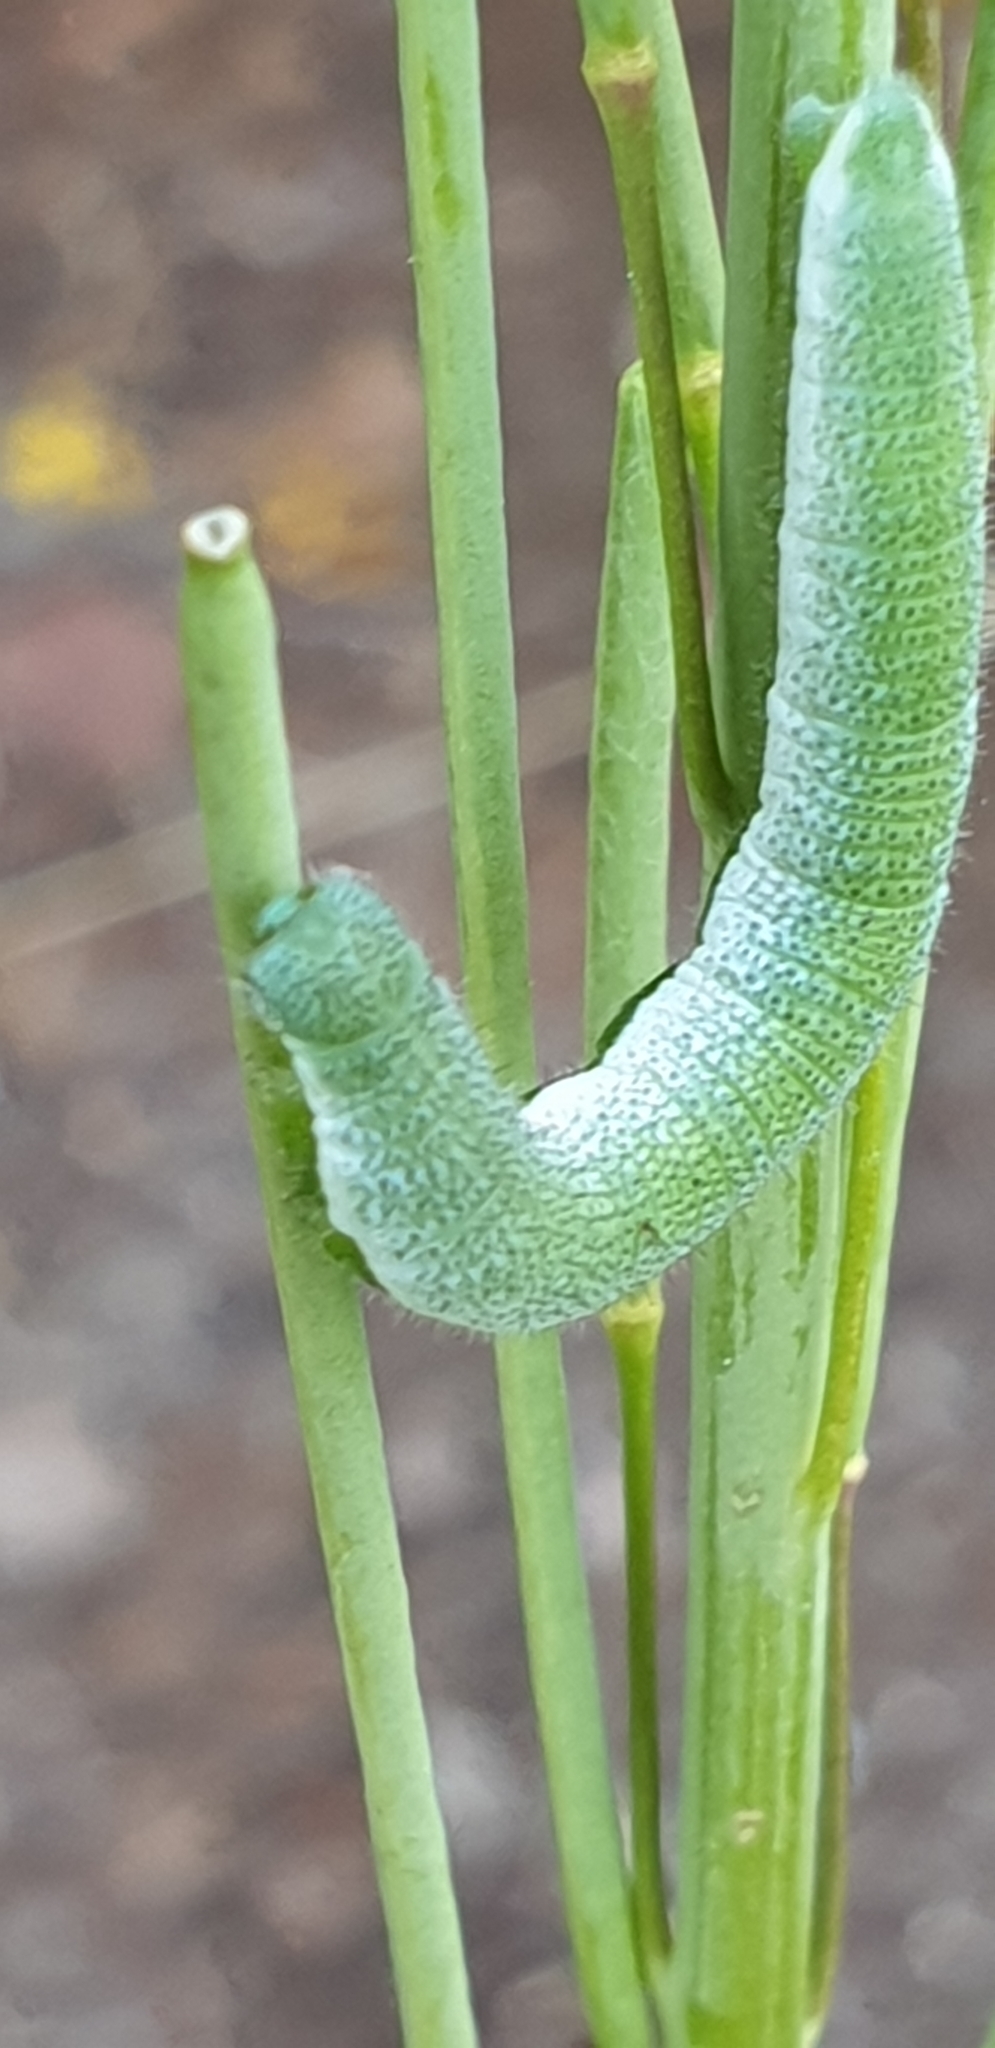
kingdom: Animalia
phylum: Arthropoda
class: Insecta
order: Lepidoptera
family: Pieridae
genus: Gonepteryx
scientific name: Gonepteryx rhamni
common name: Brimstone
